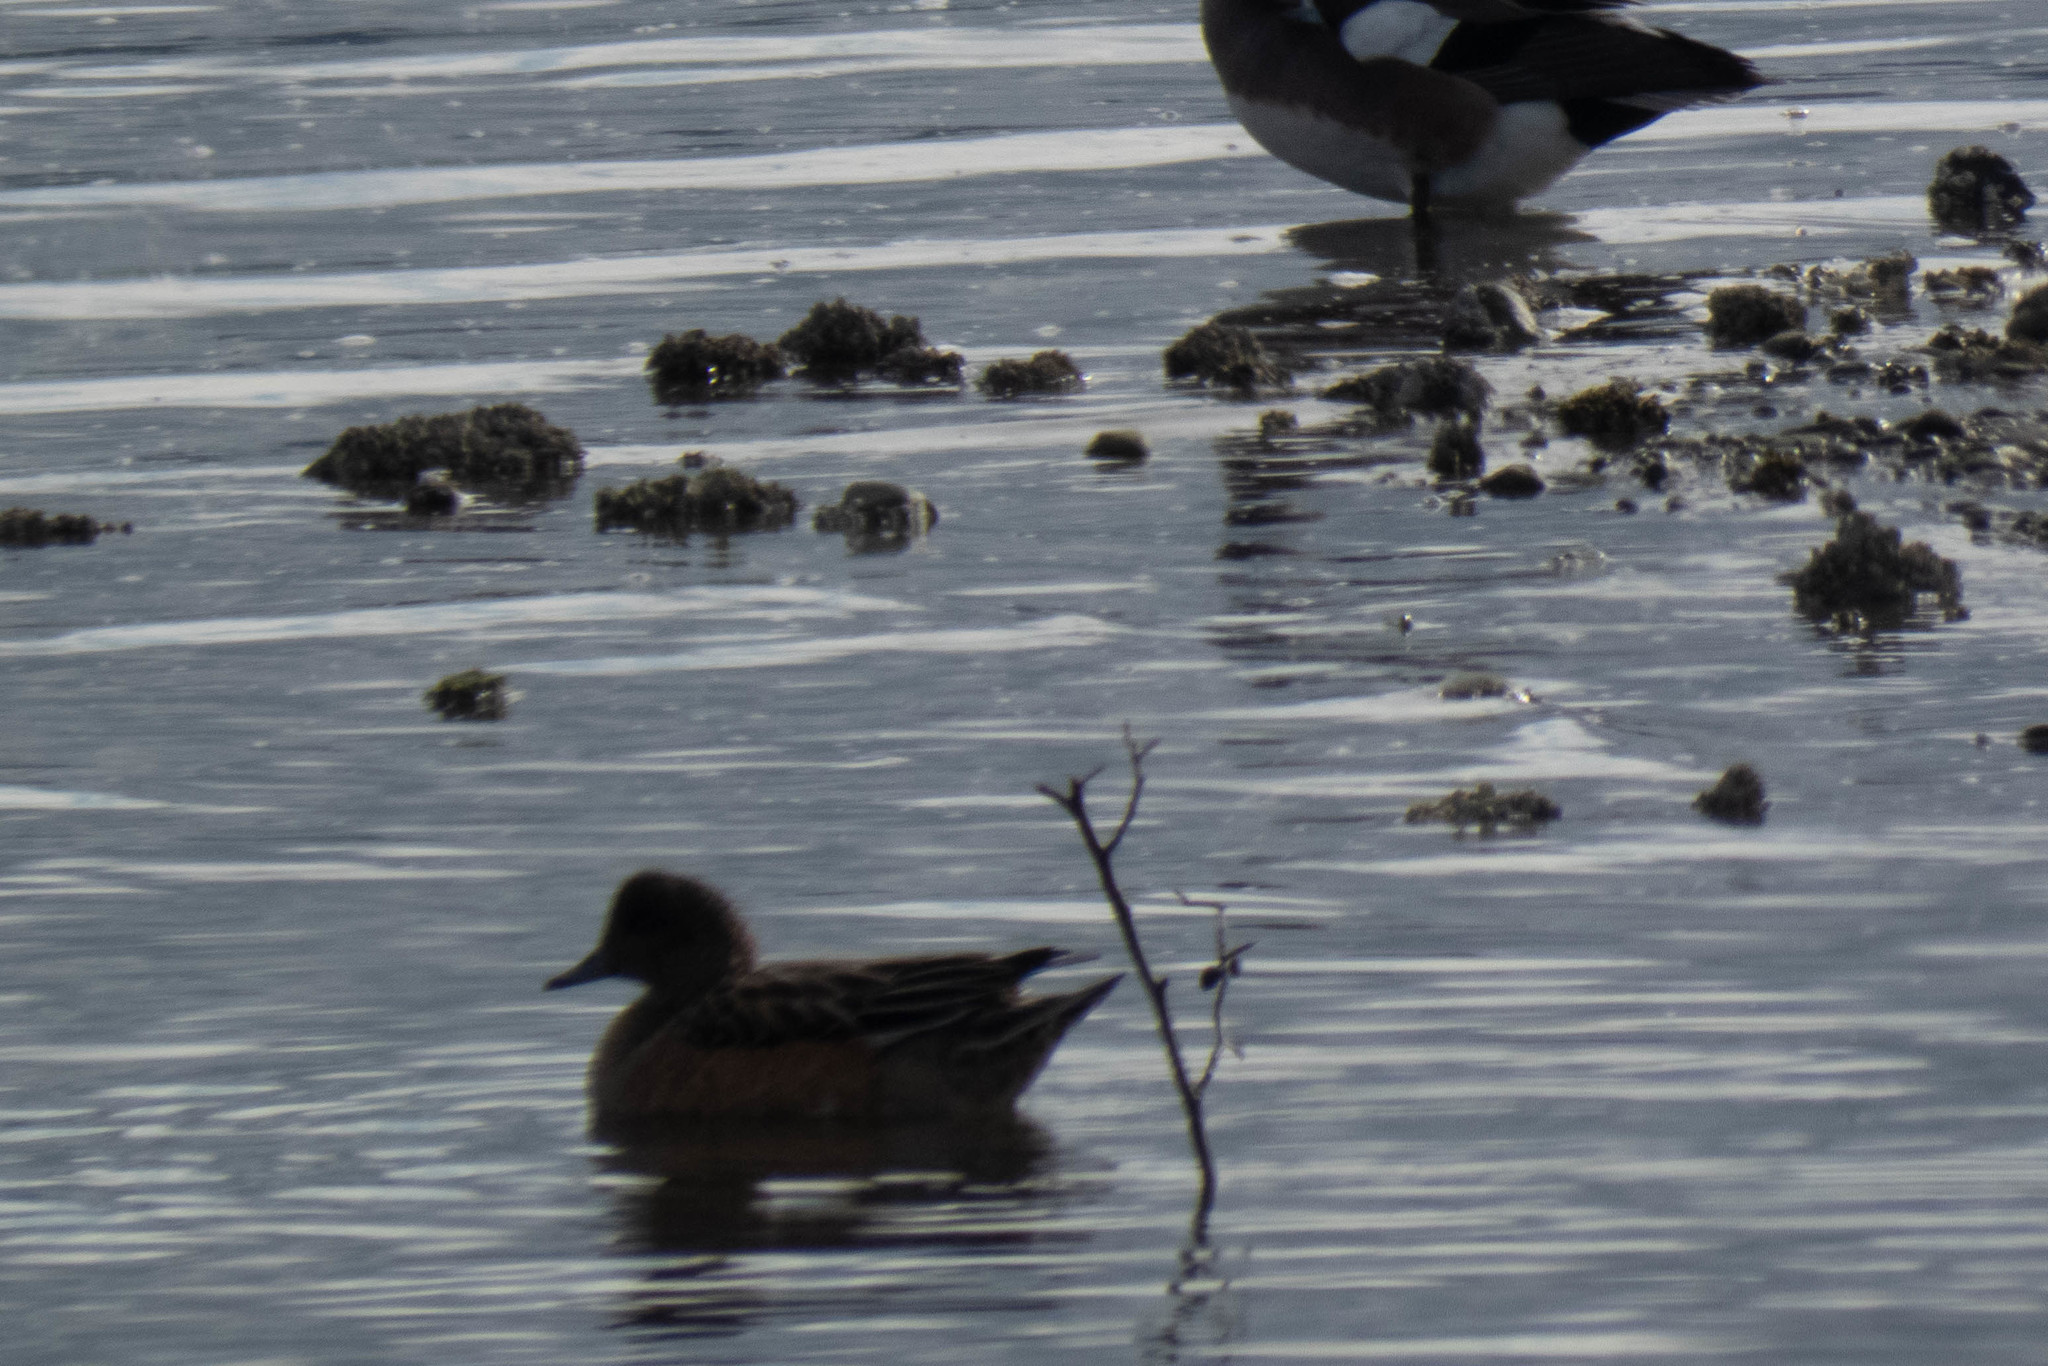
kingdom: Animalia
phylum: Chordata
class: Aves
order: Anseriformes
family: Anatidae
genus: Mareca
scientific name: Mareca americana
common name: American wigeon
